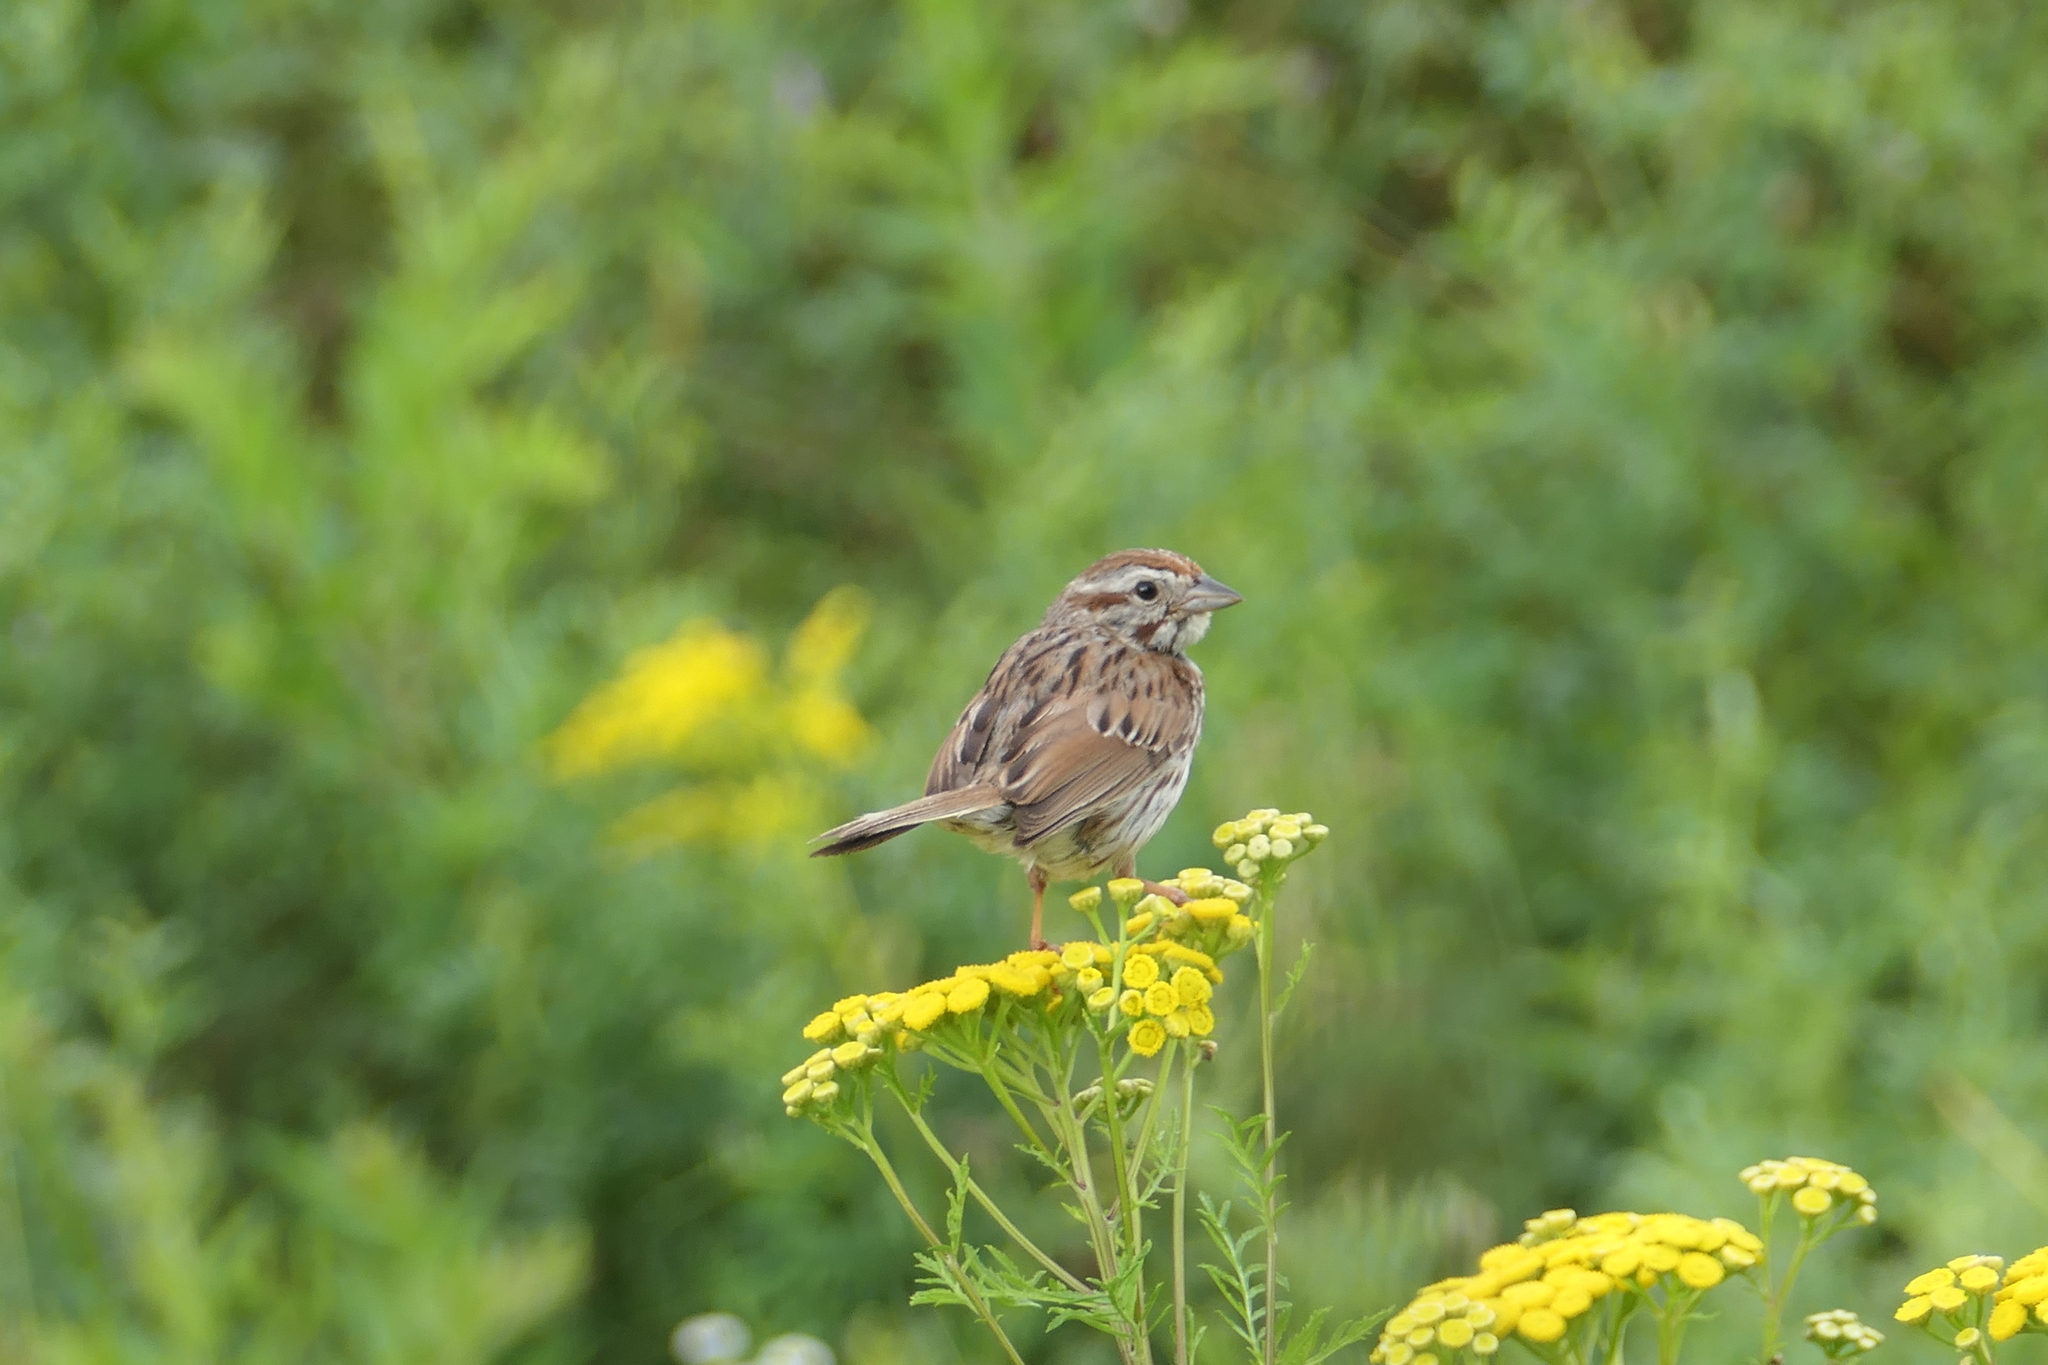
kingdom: Animalia
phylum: Chordata
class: Aves
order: Passeriformes
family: Passerellidae
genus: Melospiza
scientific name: Melospiza melodia
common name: Song sparrow
